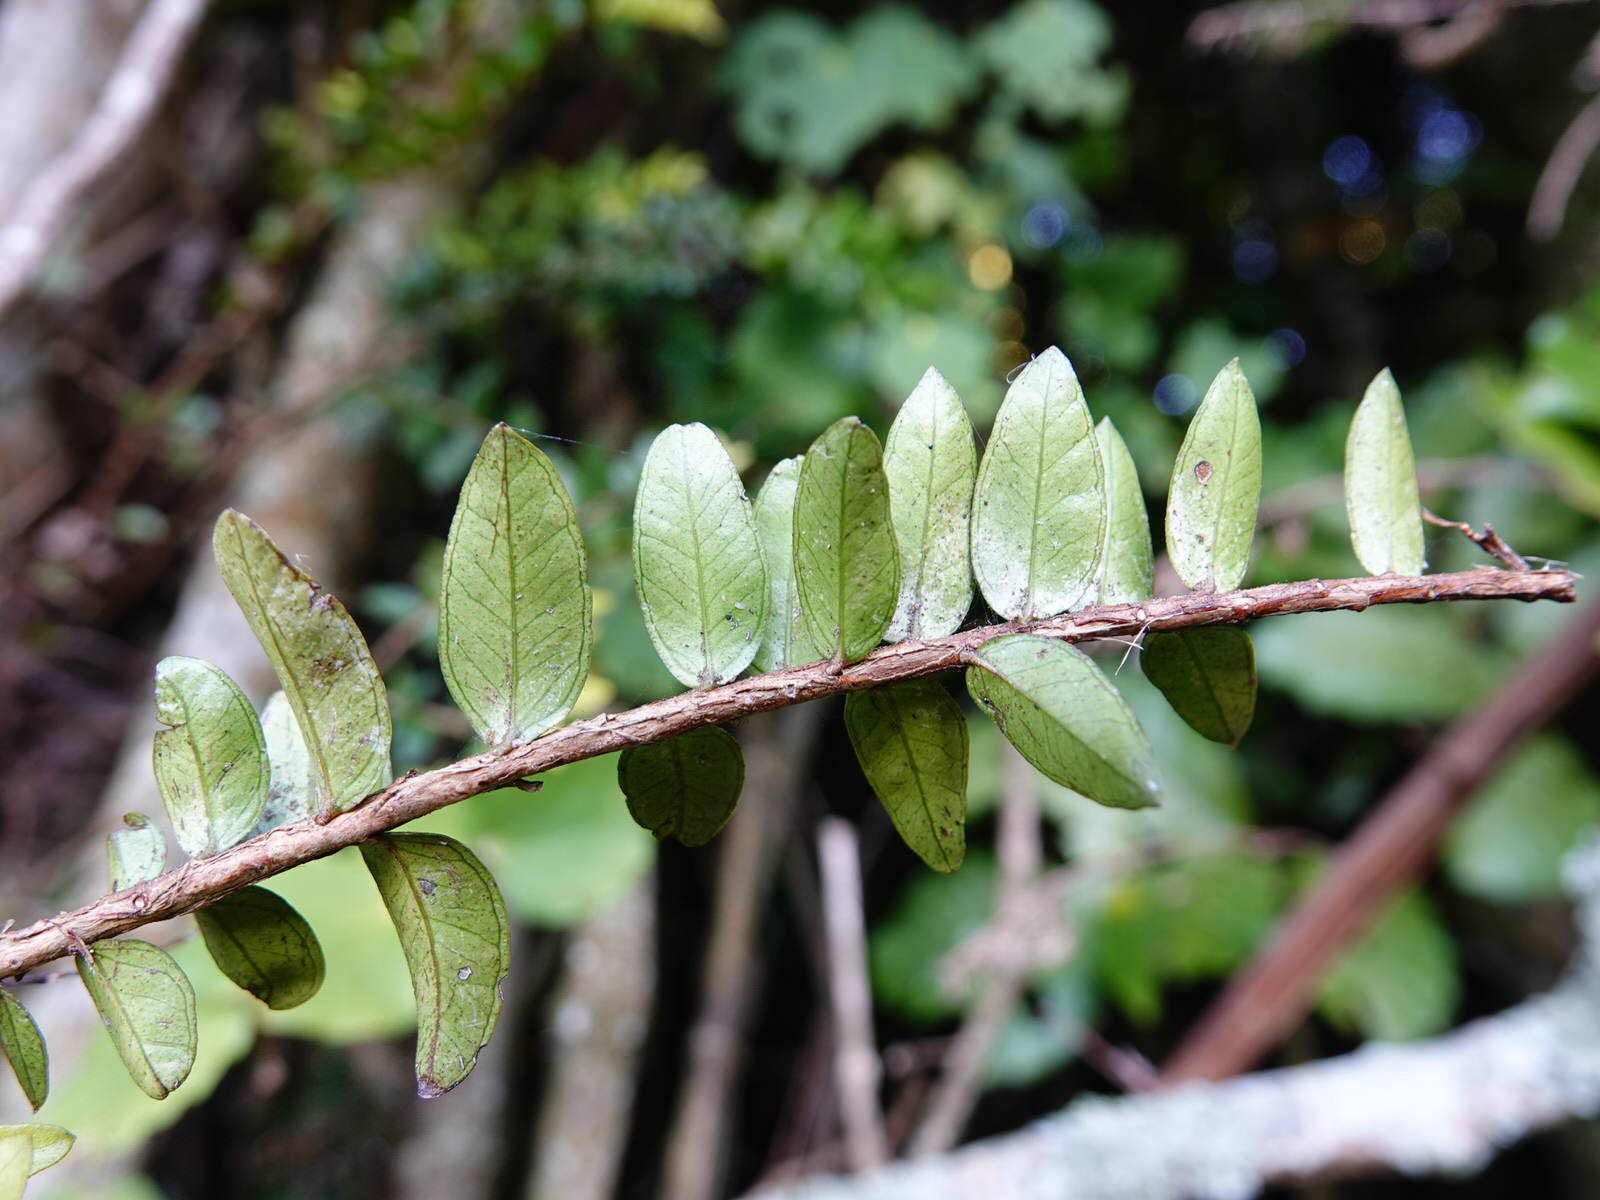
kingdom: Plantae
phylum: Tracheophyta
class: Magnoliopsida
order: Myrtales
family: Myrtaceae
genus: Metrosideros
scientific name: Metrosideros diffusa
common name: Small ratavine
